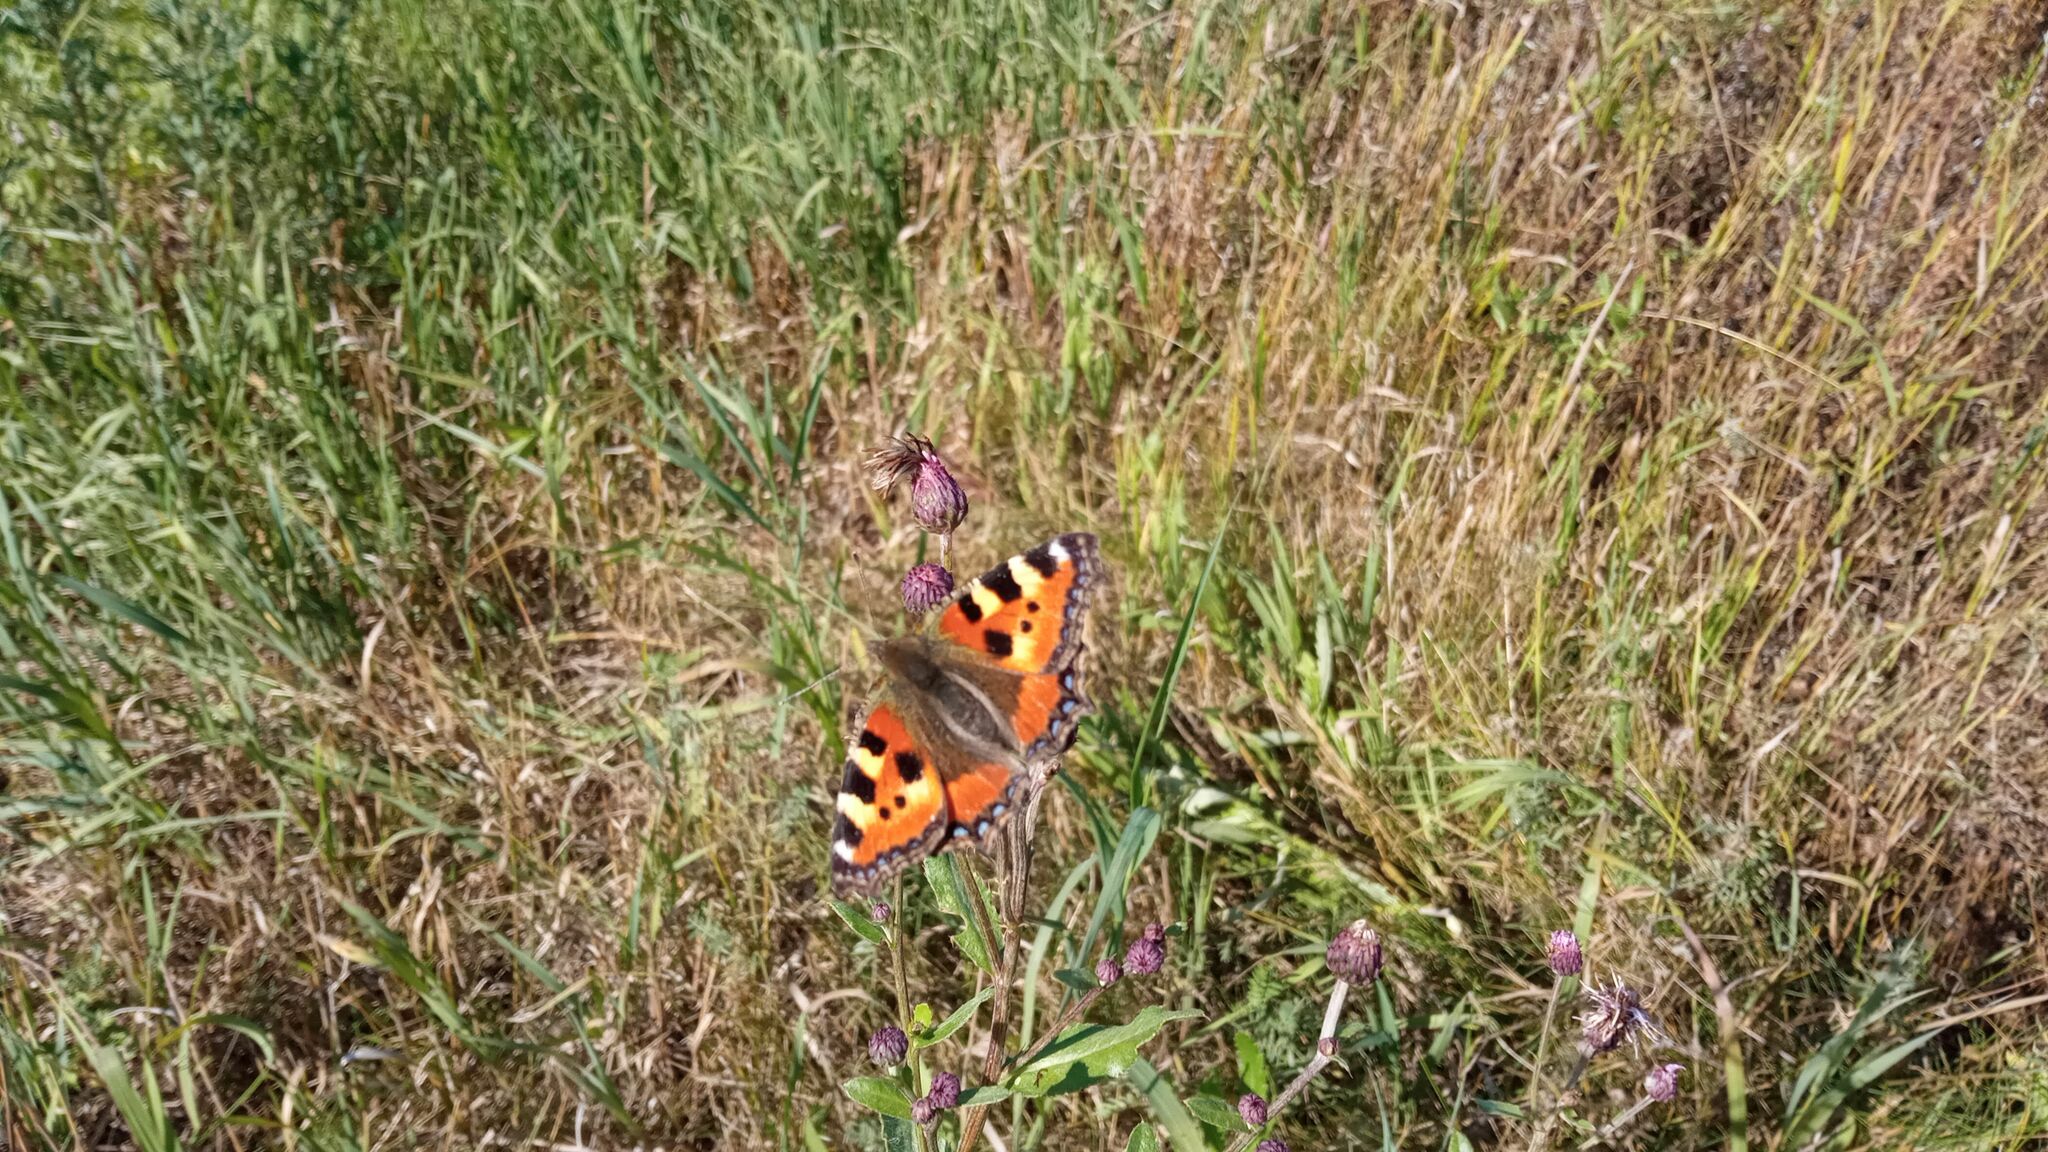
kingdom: Animalia
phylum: Arthropoda
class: Insecta
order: Lepidoptera
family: Nymphalidae
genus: Aglais
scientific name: Aglais urticae
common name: Small tortoiseshell
